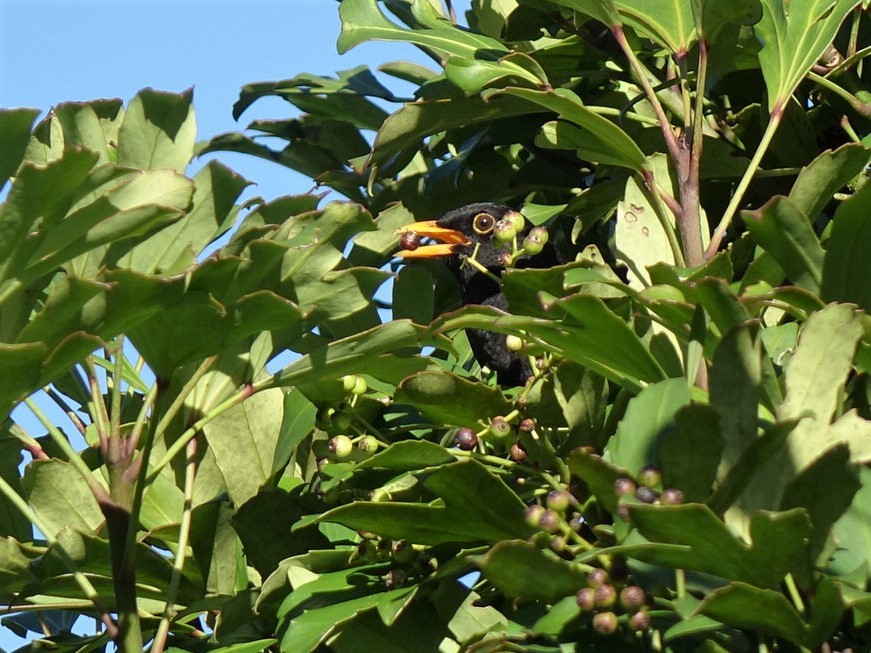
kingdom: Animalia
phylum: Chordata
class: Aves
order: Passeriformes
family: Turdidae
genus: Turdus
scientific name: Turdus merula
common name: Common blackbird
